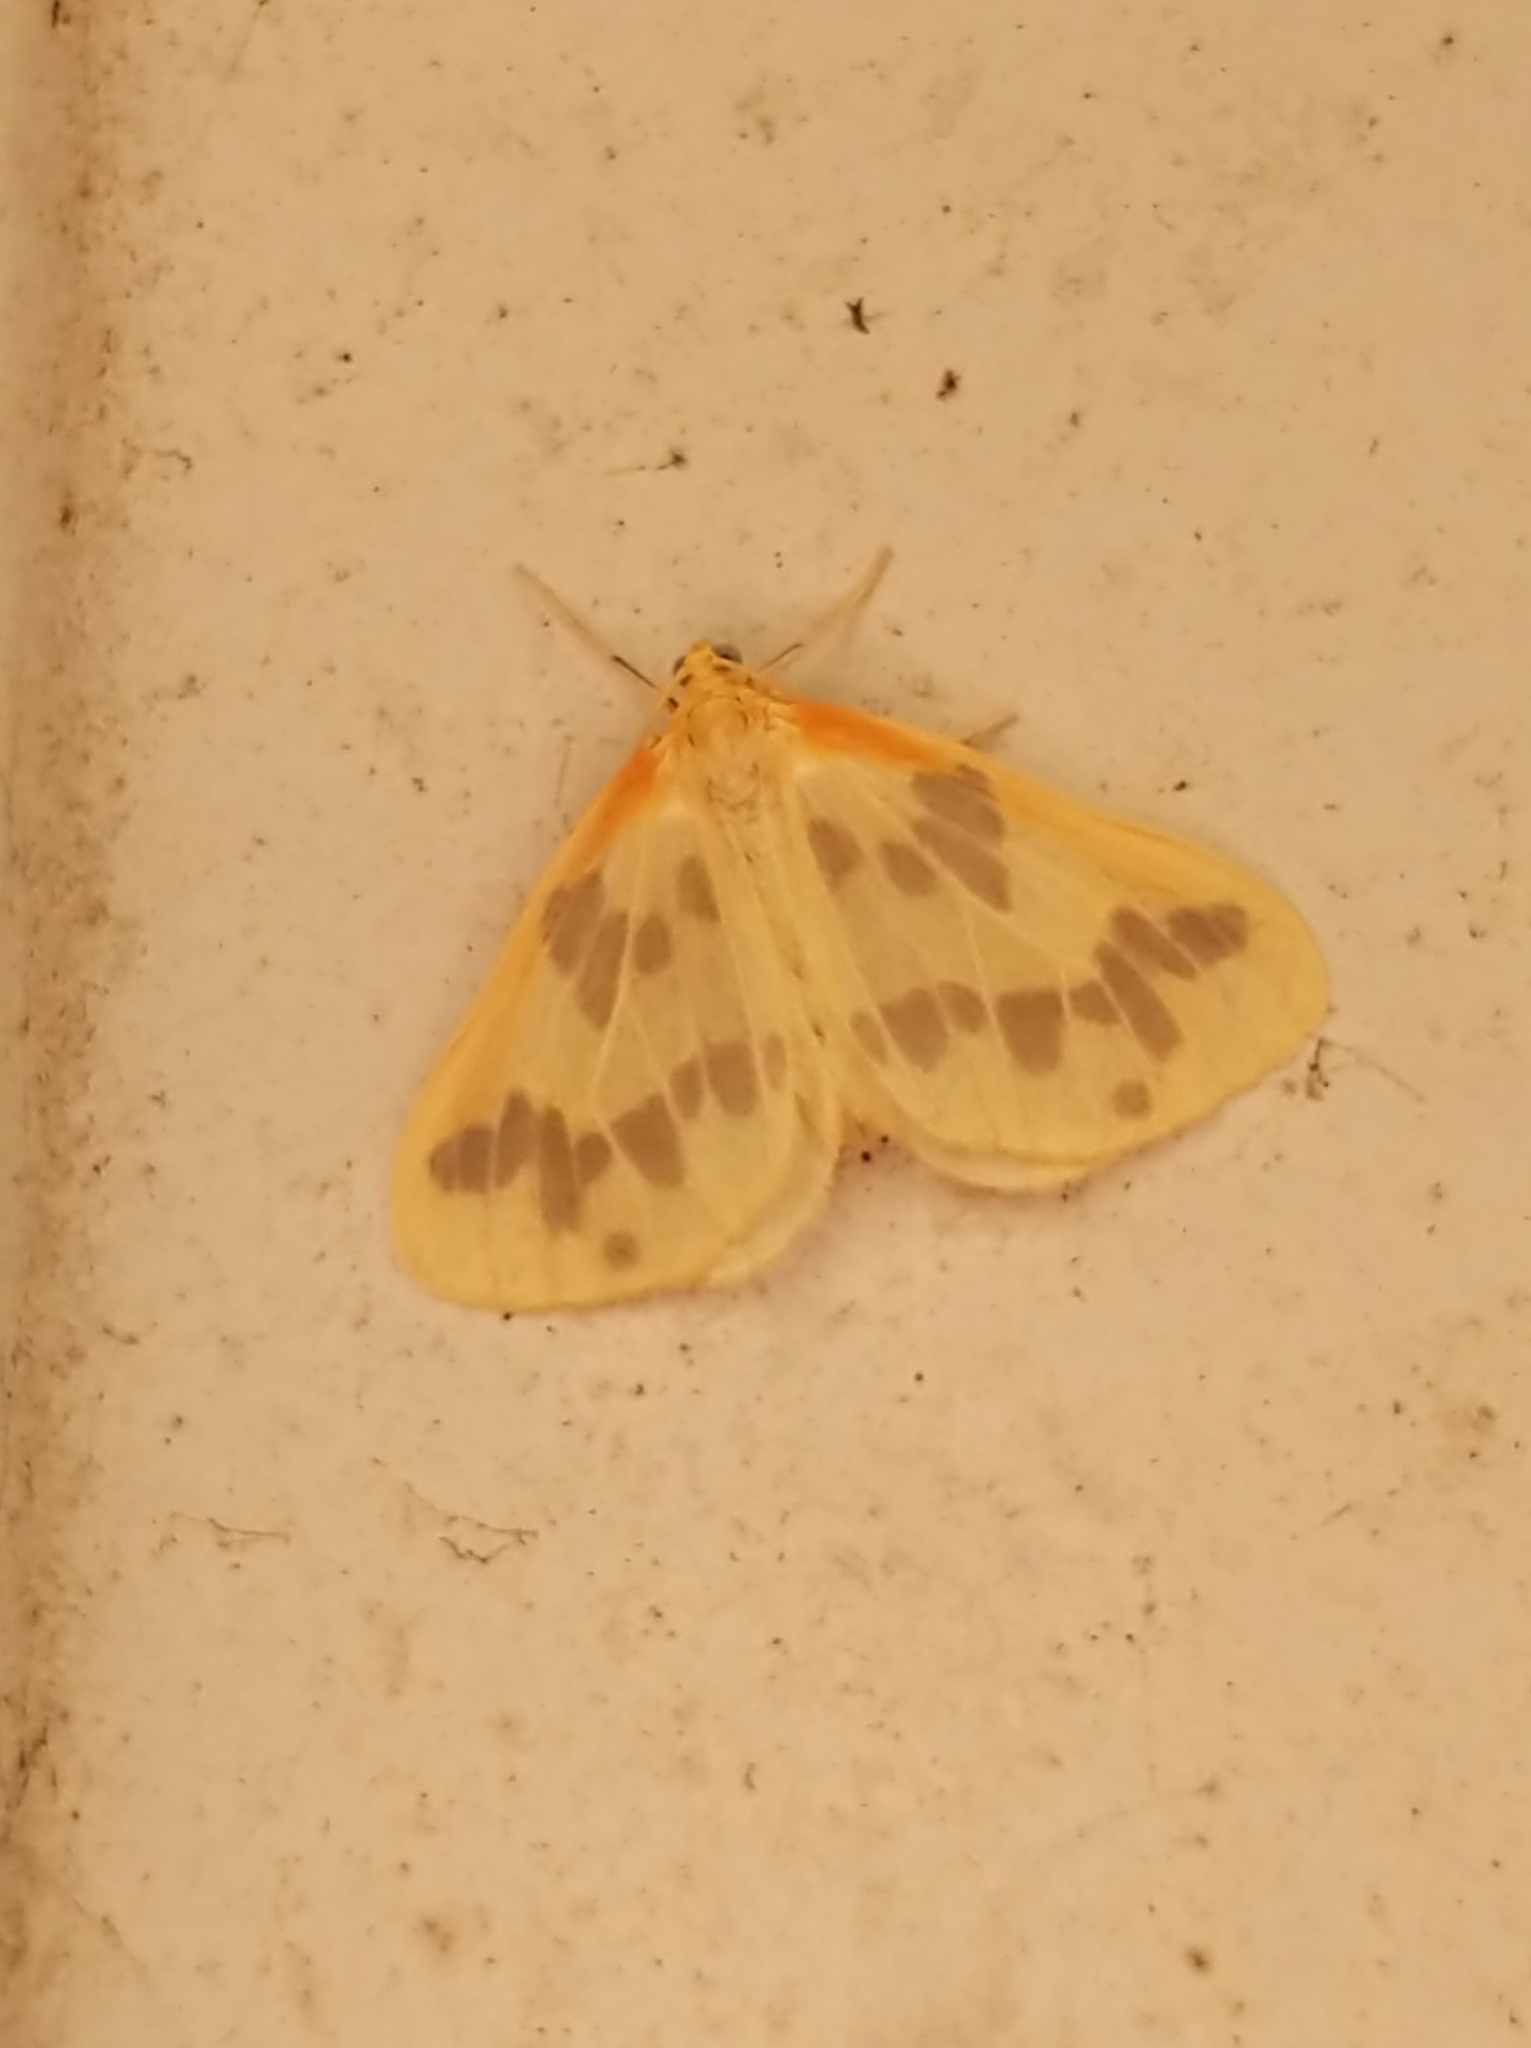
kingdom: Animalia
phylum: Arthropoda
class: Insecta
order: Lepidoptera
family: Geometridae
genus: Eubaphe
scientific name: Eubaphe mendica
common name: Beggar
